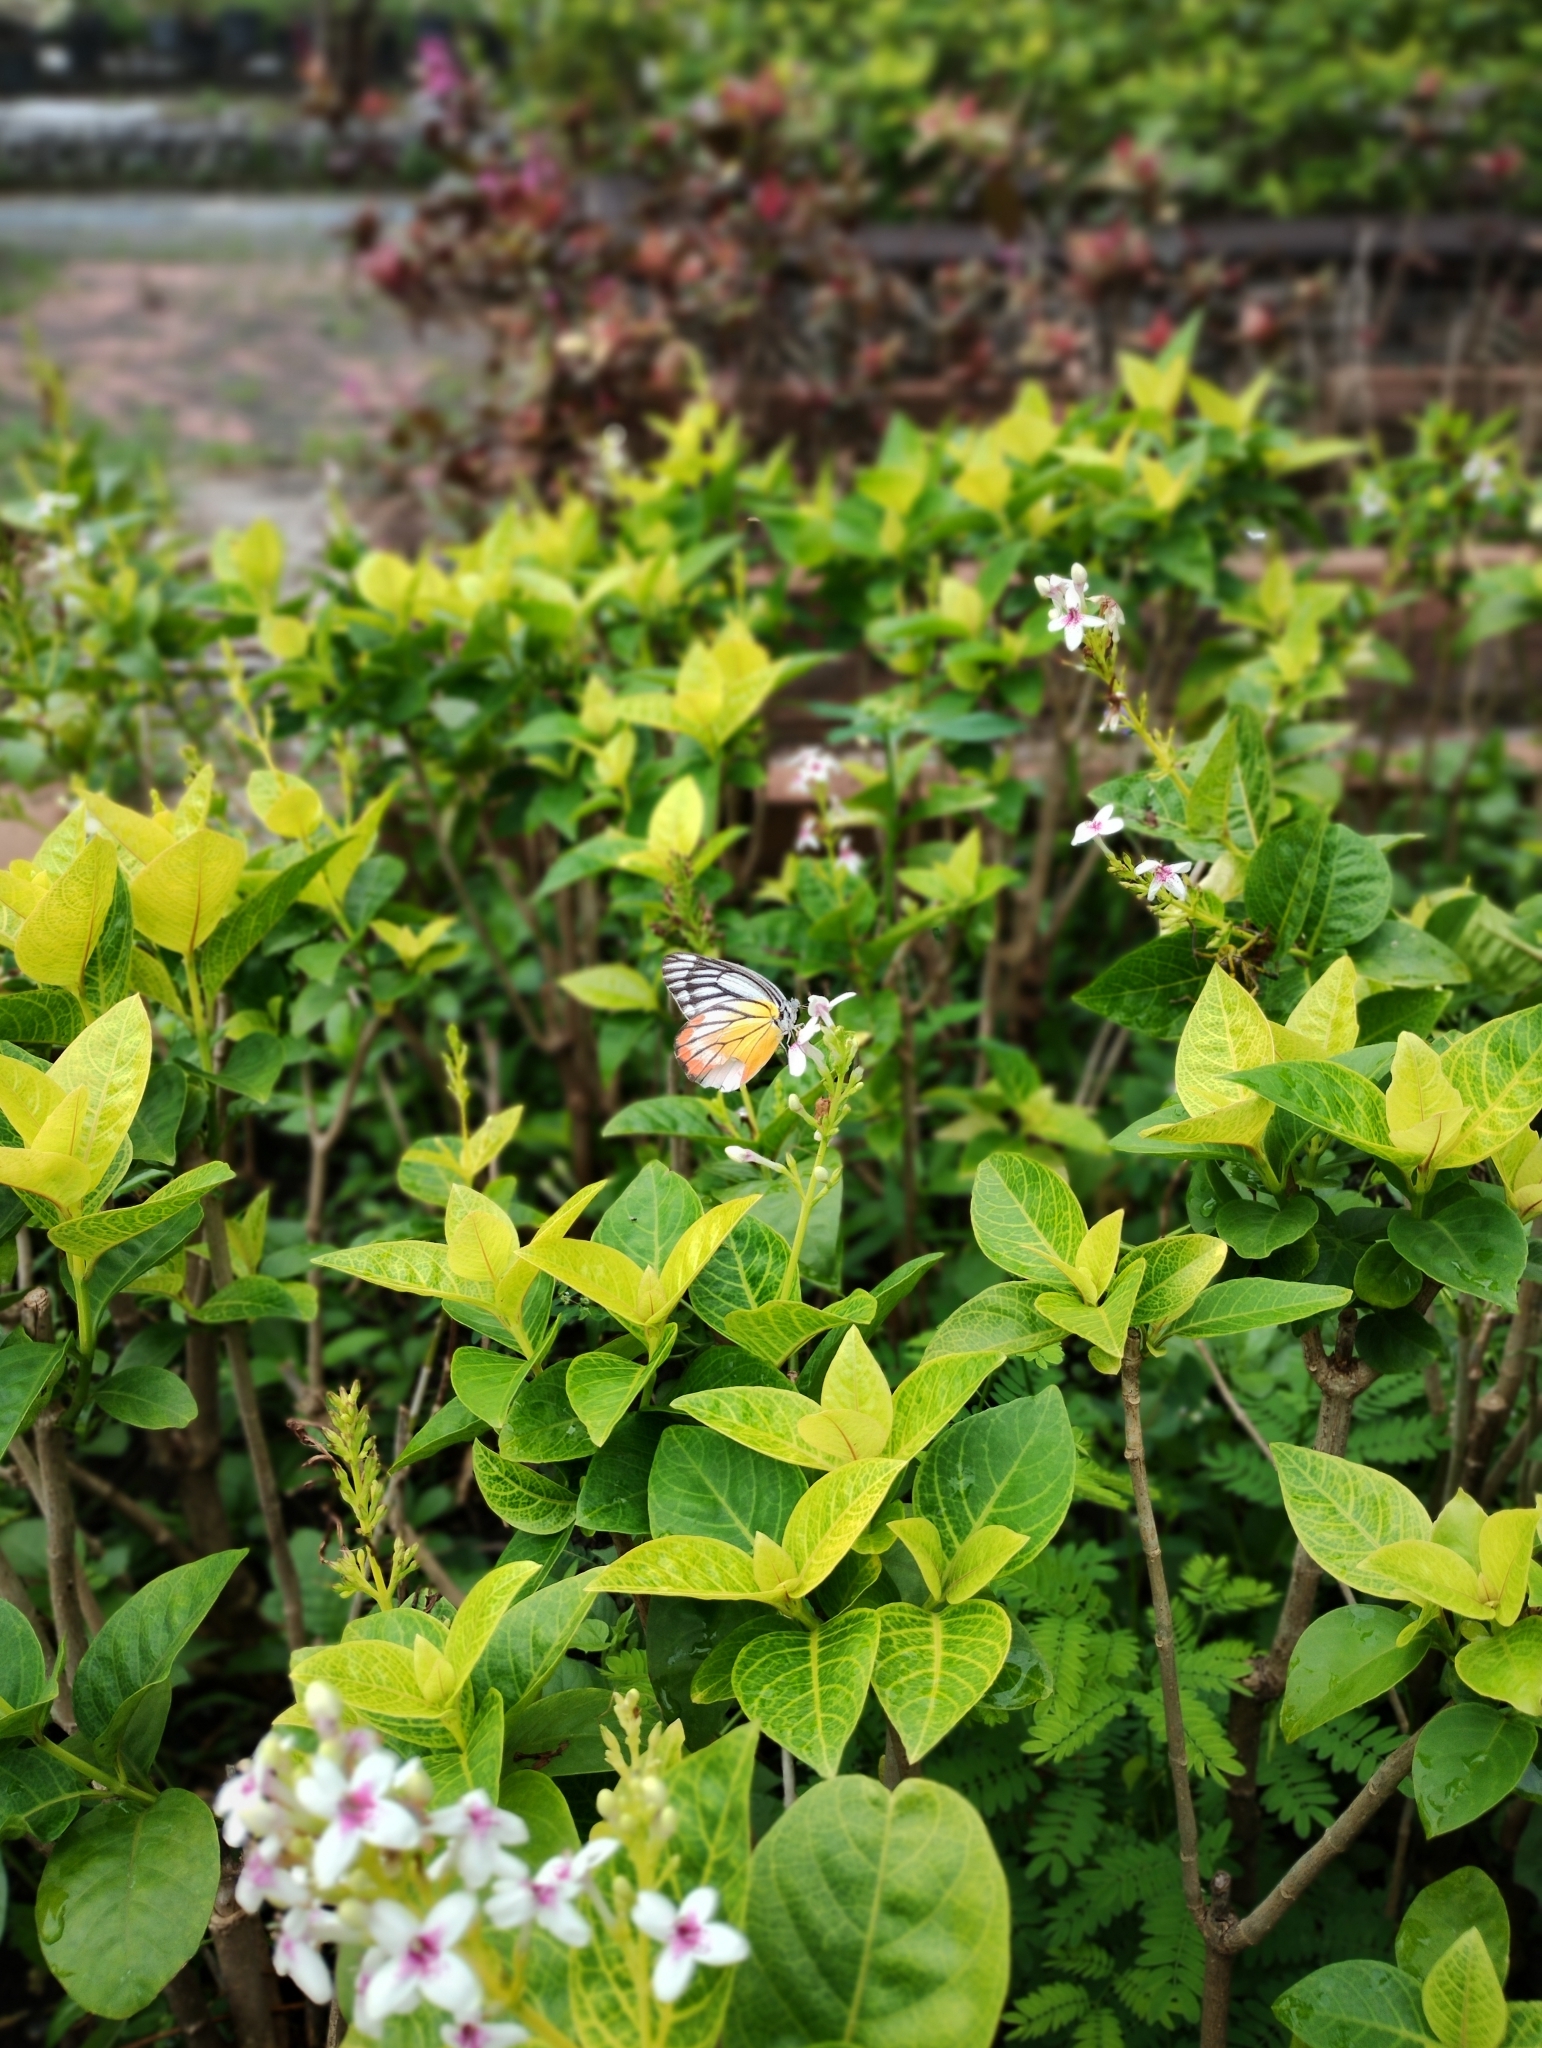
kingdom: Animalia
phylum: Arthropoda
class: Insecta
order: Lepidoptera
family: Pieridae
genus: Delias
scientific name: Delias hyparete
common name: Painted jezebel
